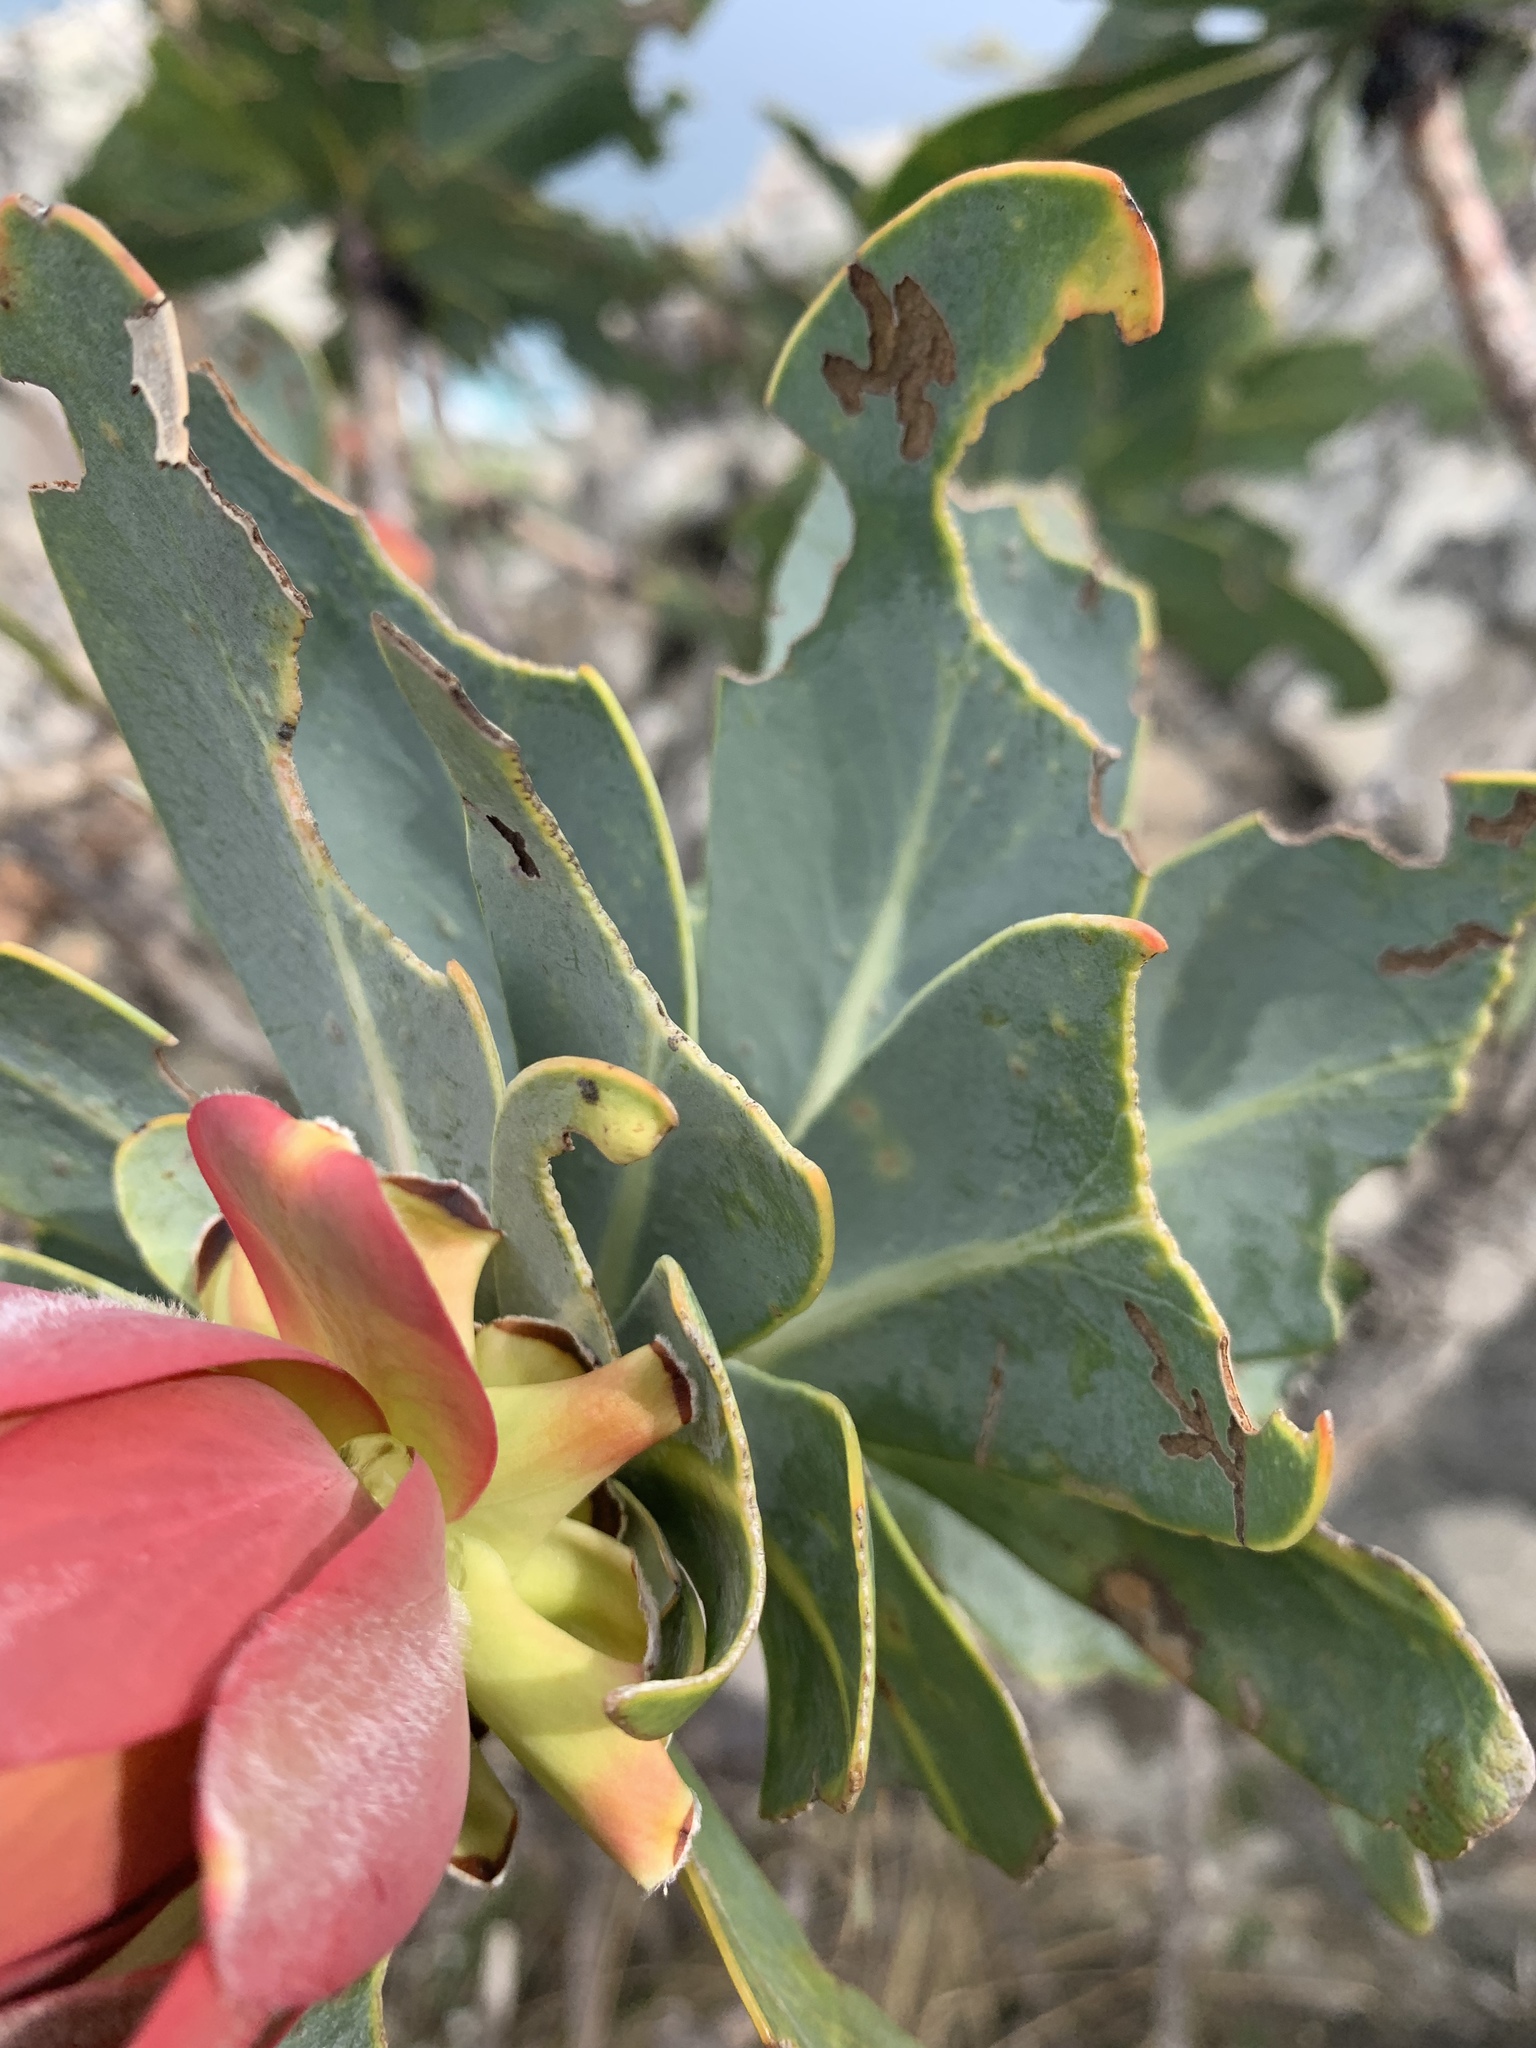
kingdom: Plantae
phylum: Tracheophyta
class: Magnoliopsida
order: Proteales
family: Proteaceae
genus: Protea
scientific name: Protea nitida
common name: Tree protea
